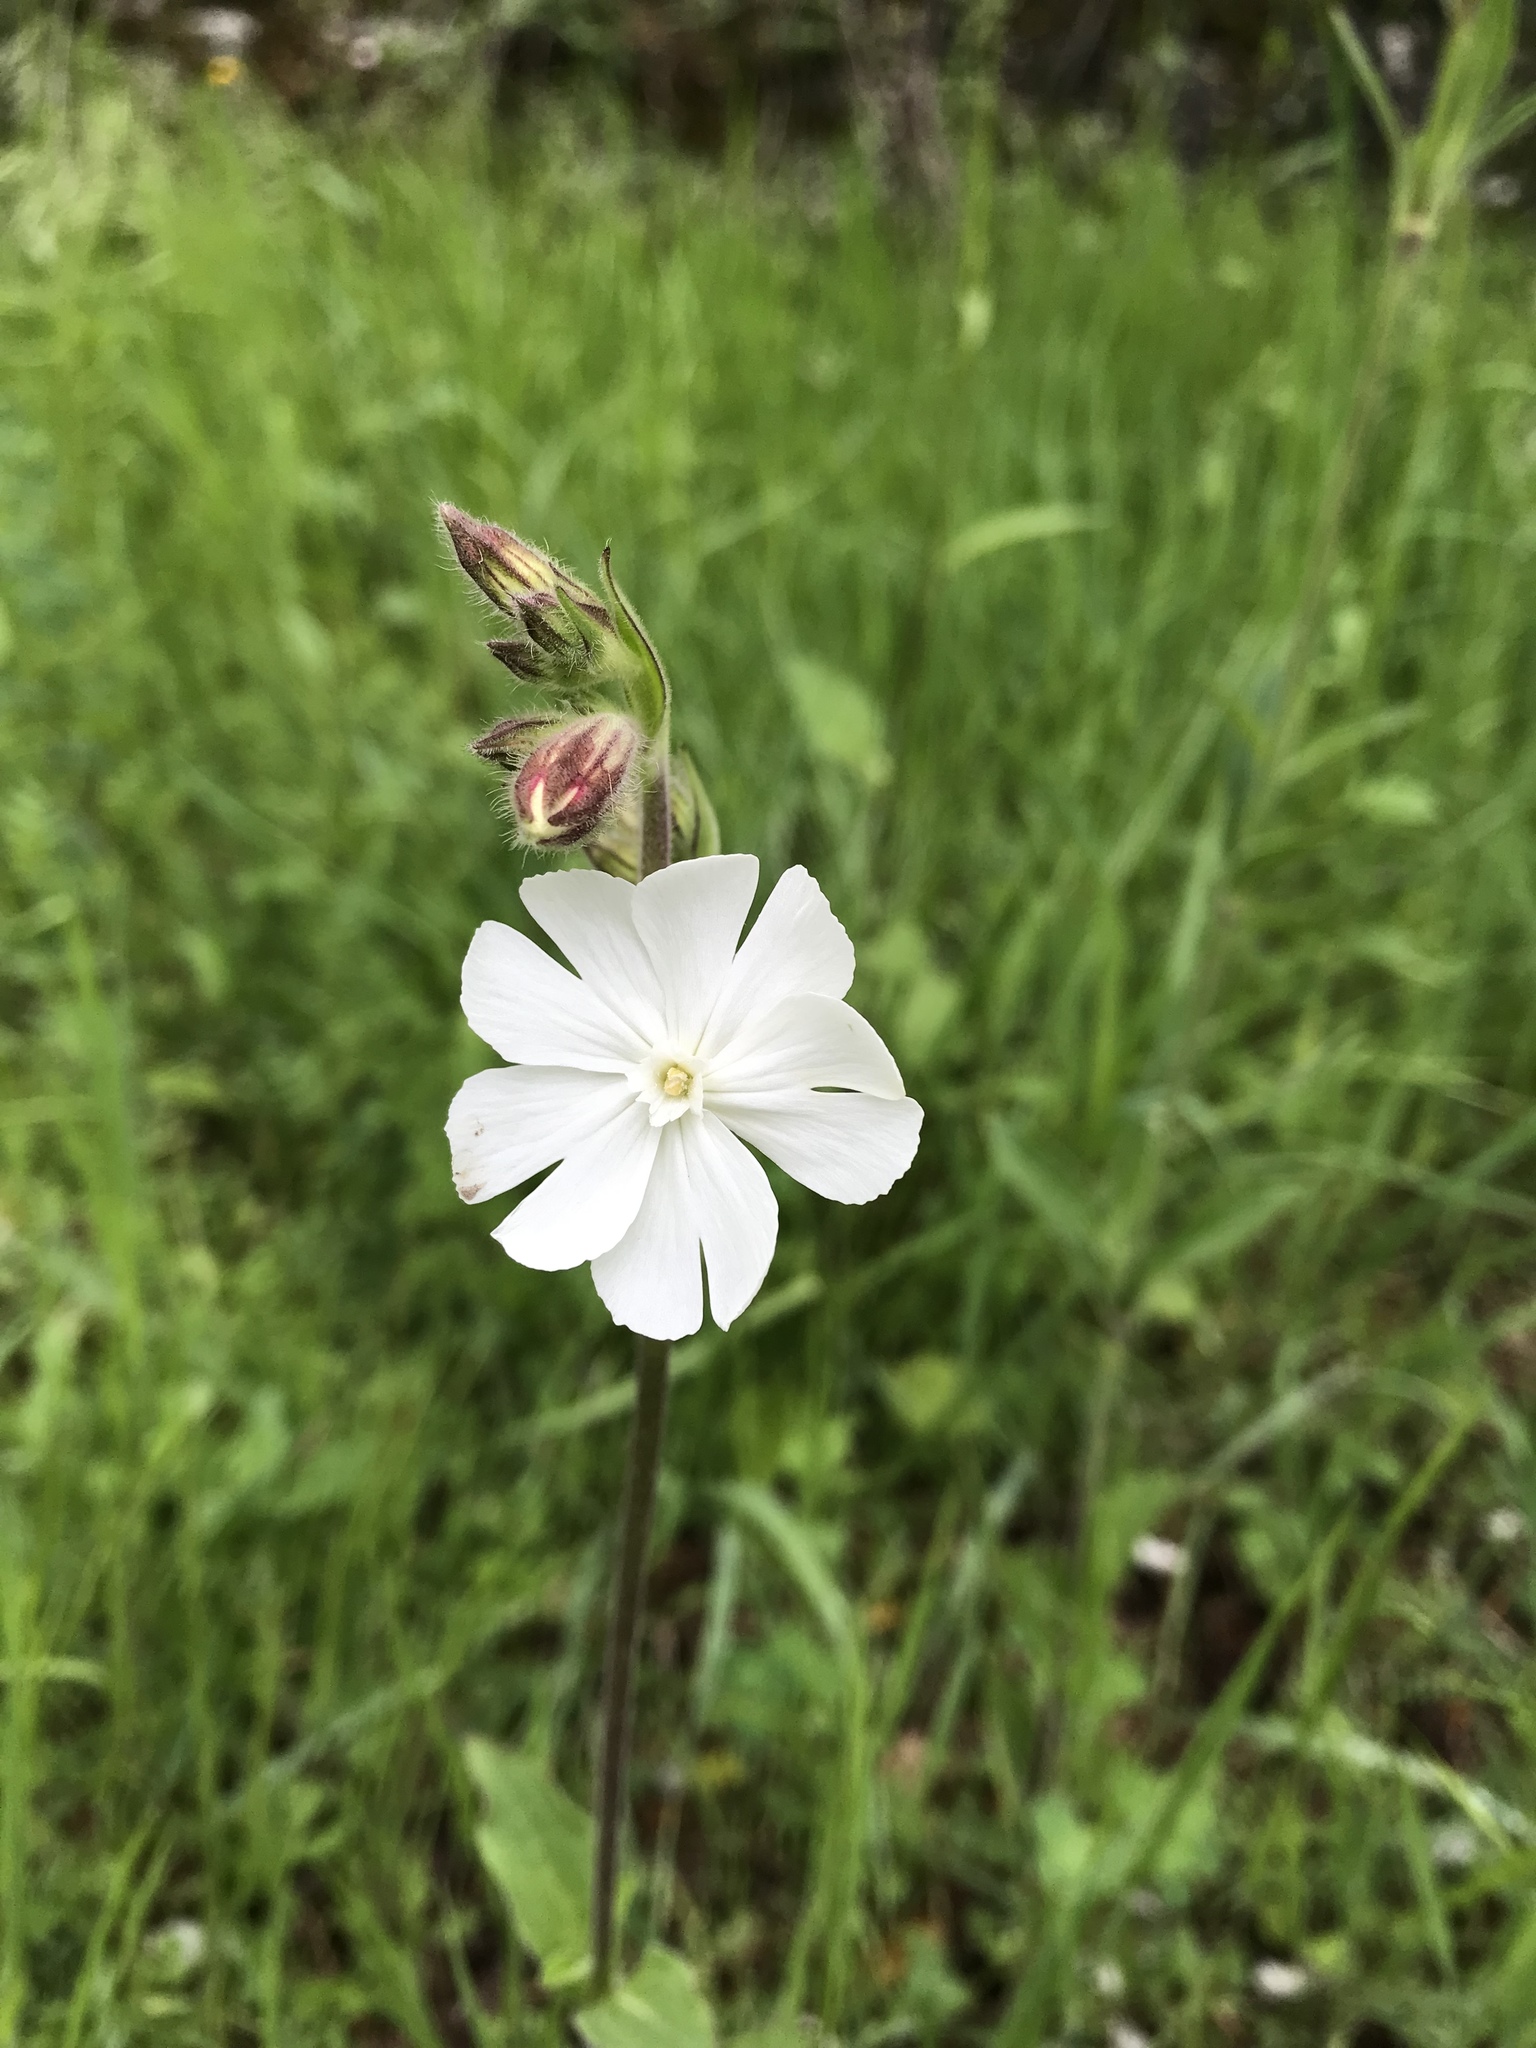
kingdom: Plantae
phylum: Tracheophyta
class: Magnoliopsida
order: Caryophyllales
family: Caryophyllaceae
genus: Silene
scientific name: Silene latifolia
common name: White campion
